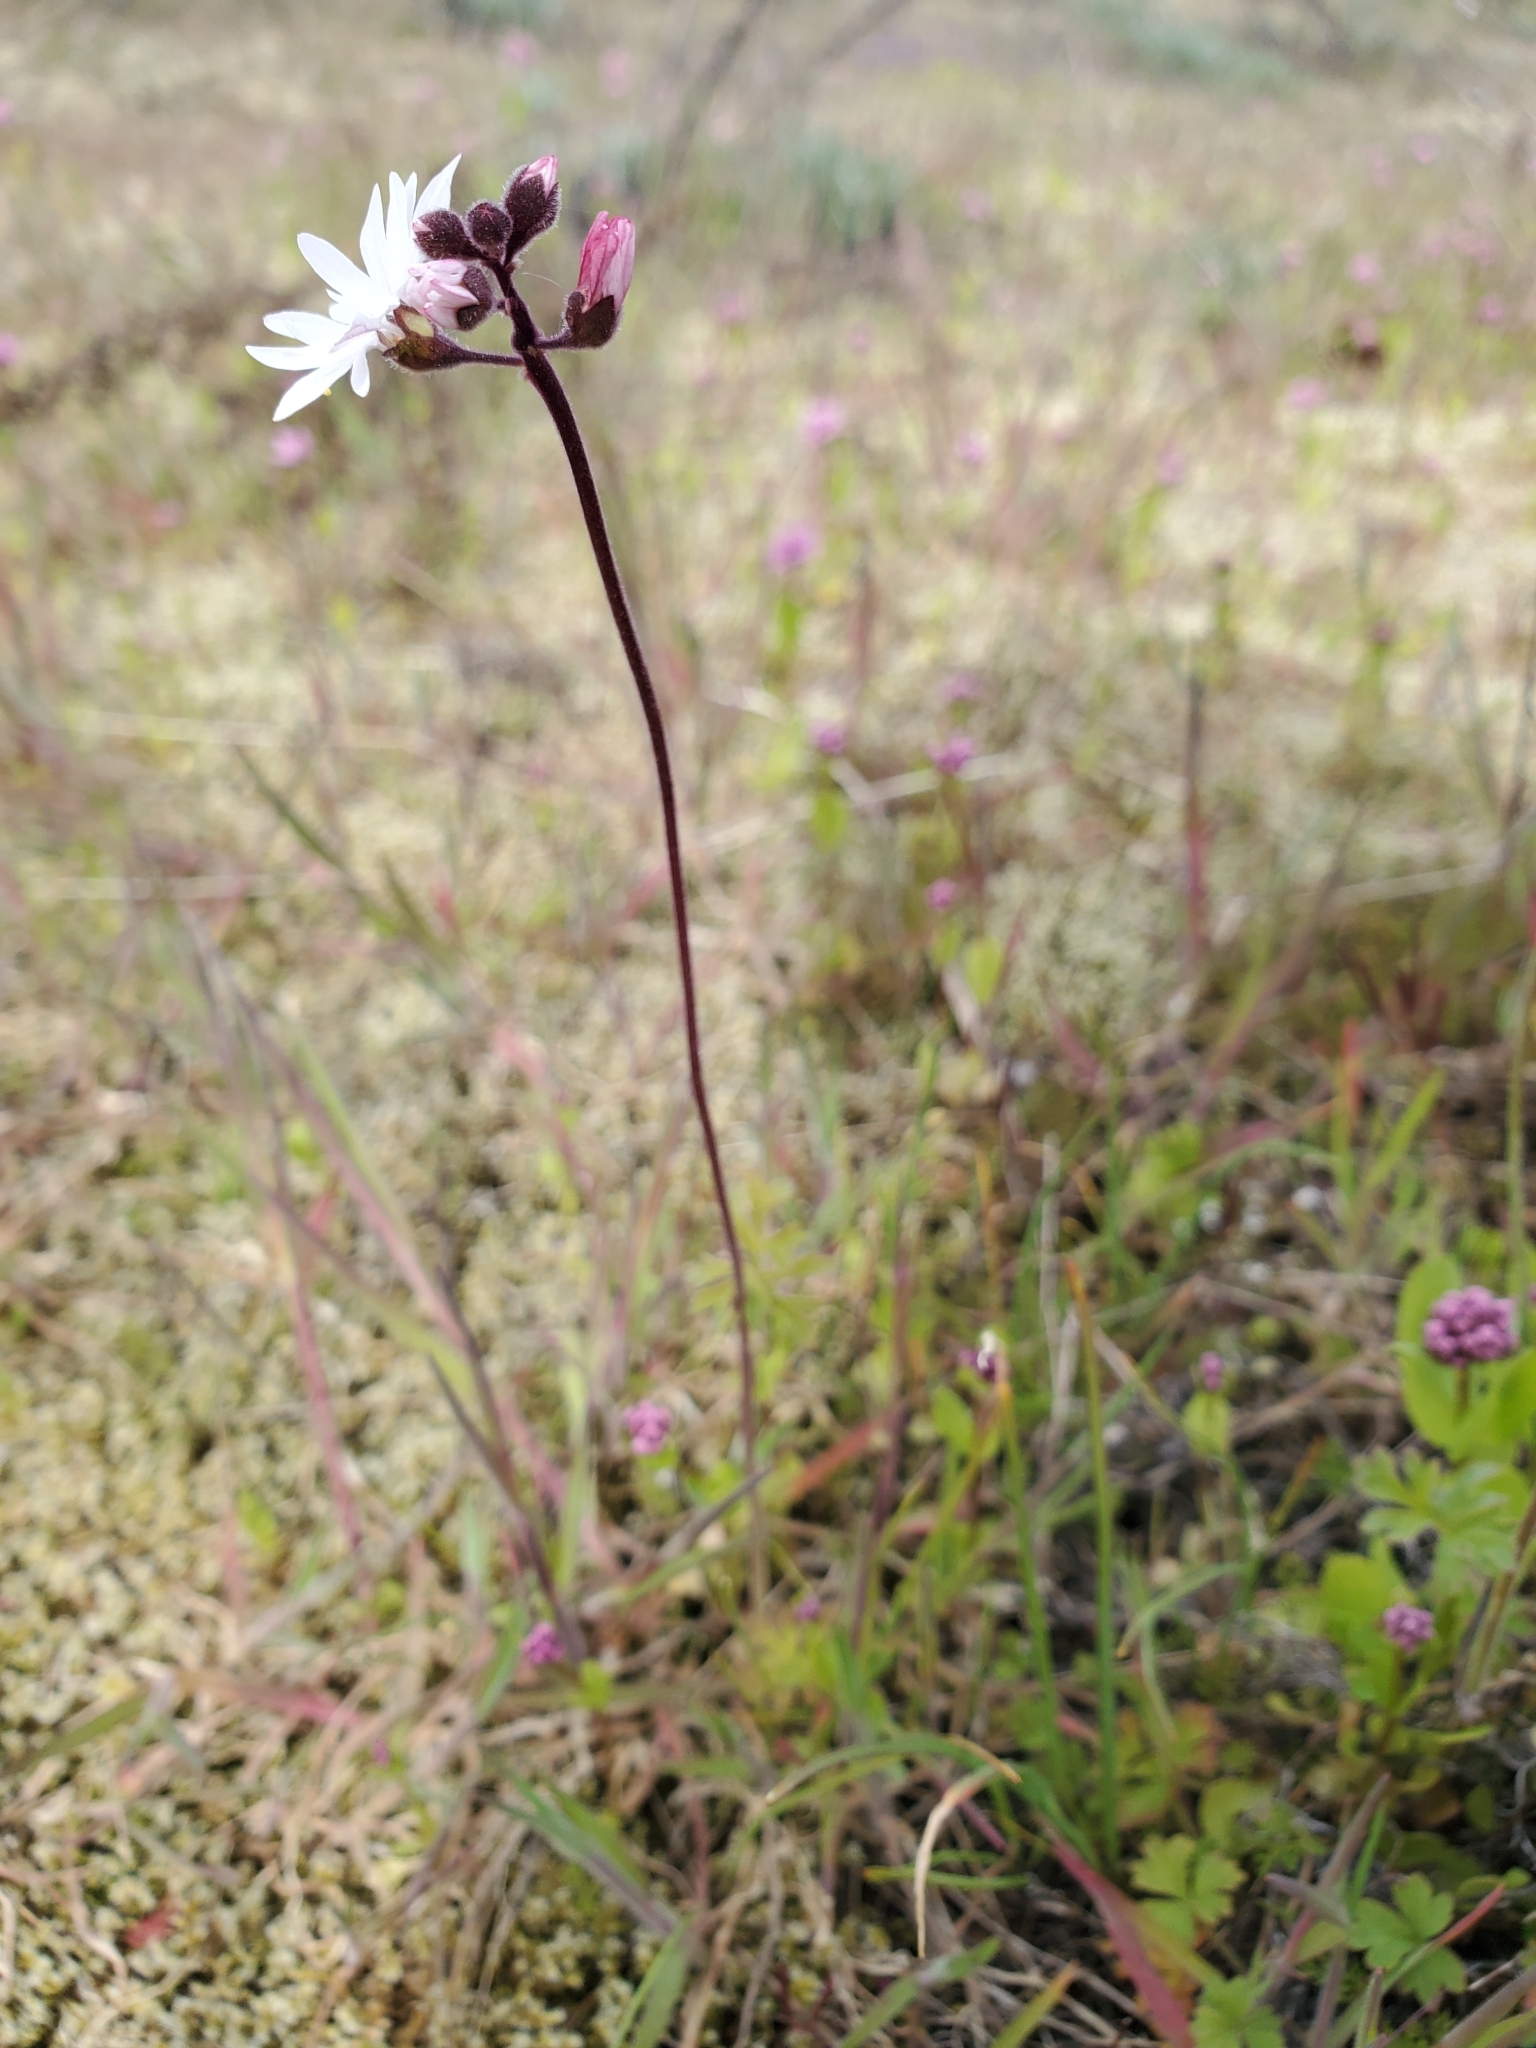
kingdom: Plantae
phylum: Tracheophyta
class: Magnoliopsida
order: Saxifragales
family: Saxifragaceae
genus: Lithophragma
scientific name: Lithophragma parviflorum
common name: Small-flowered fringe-cup
